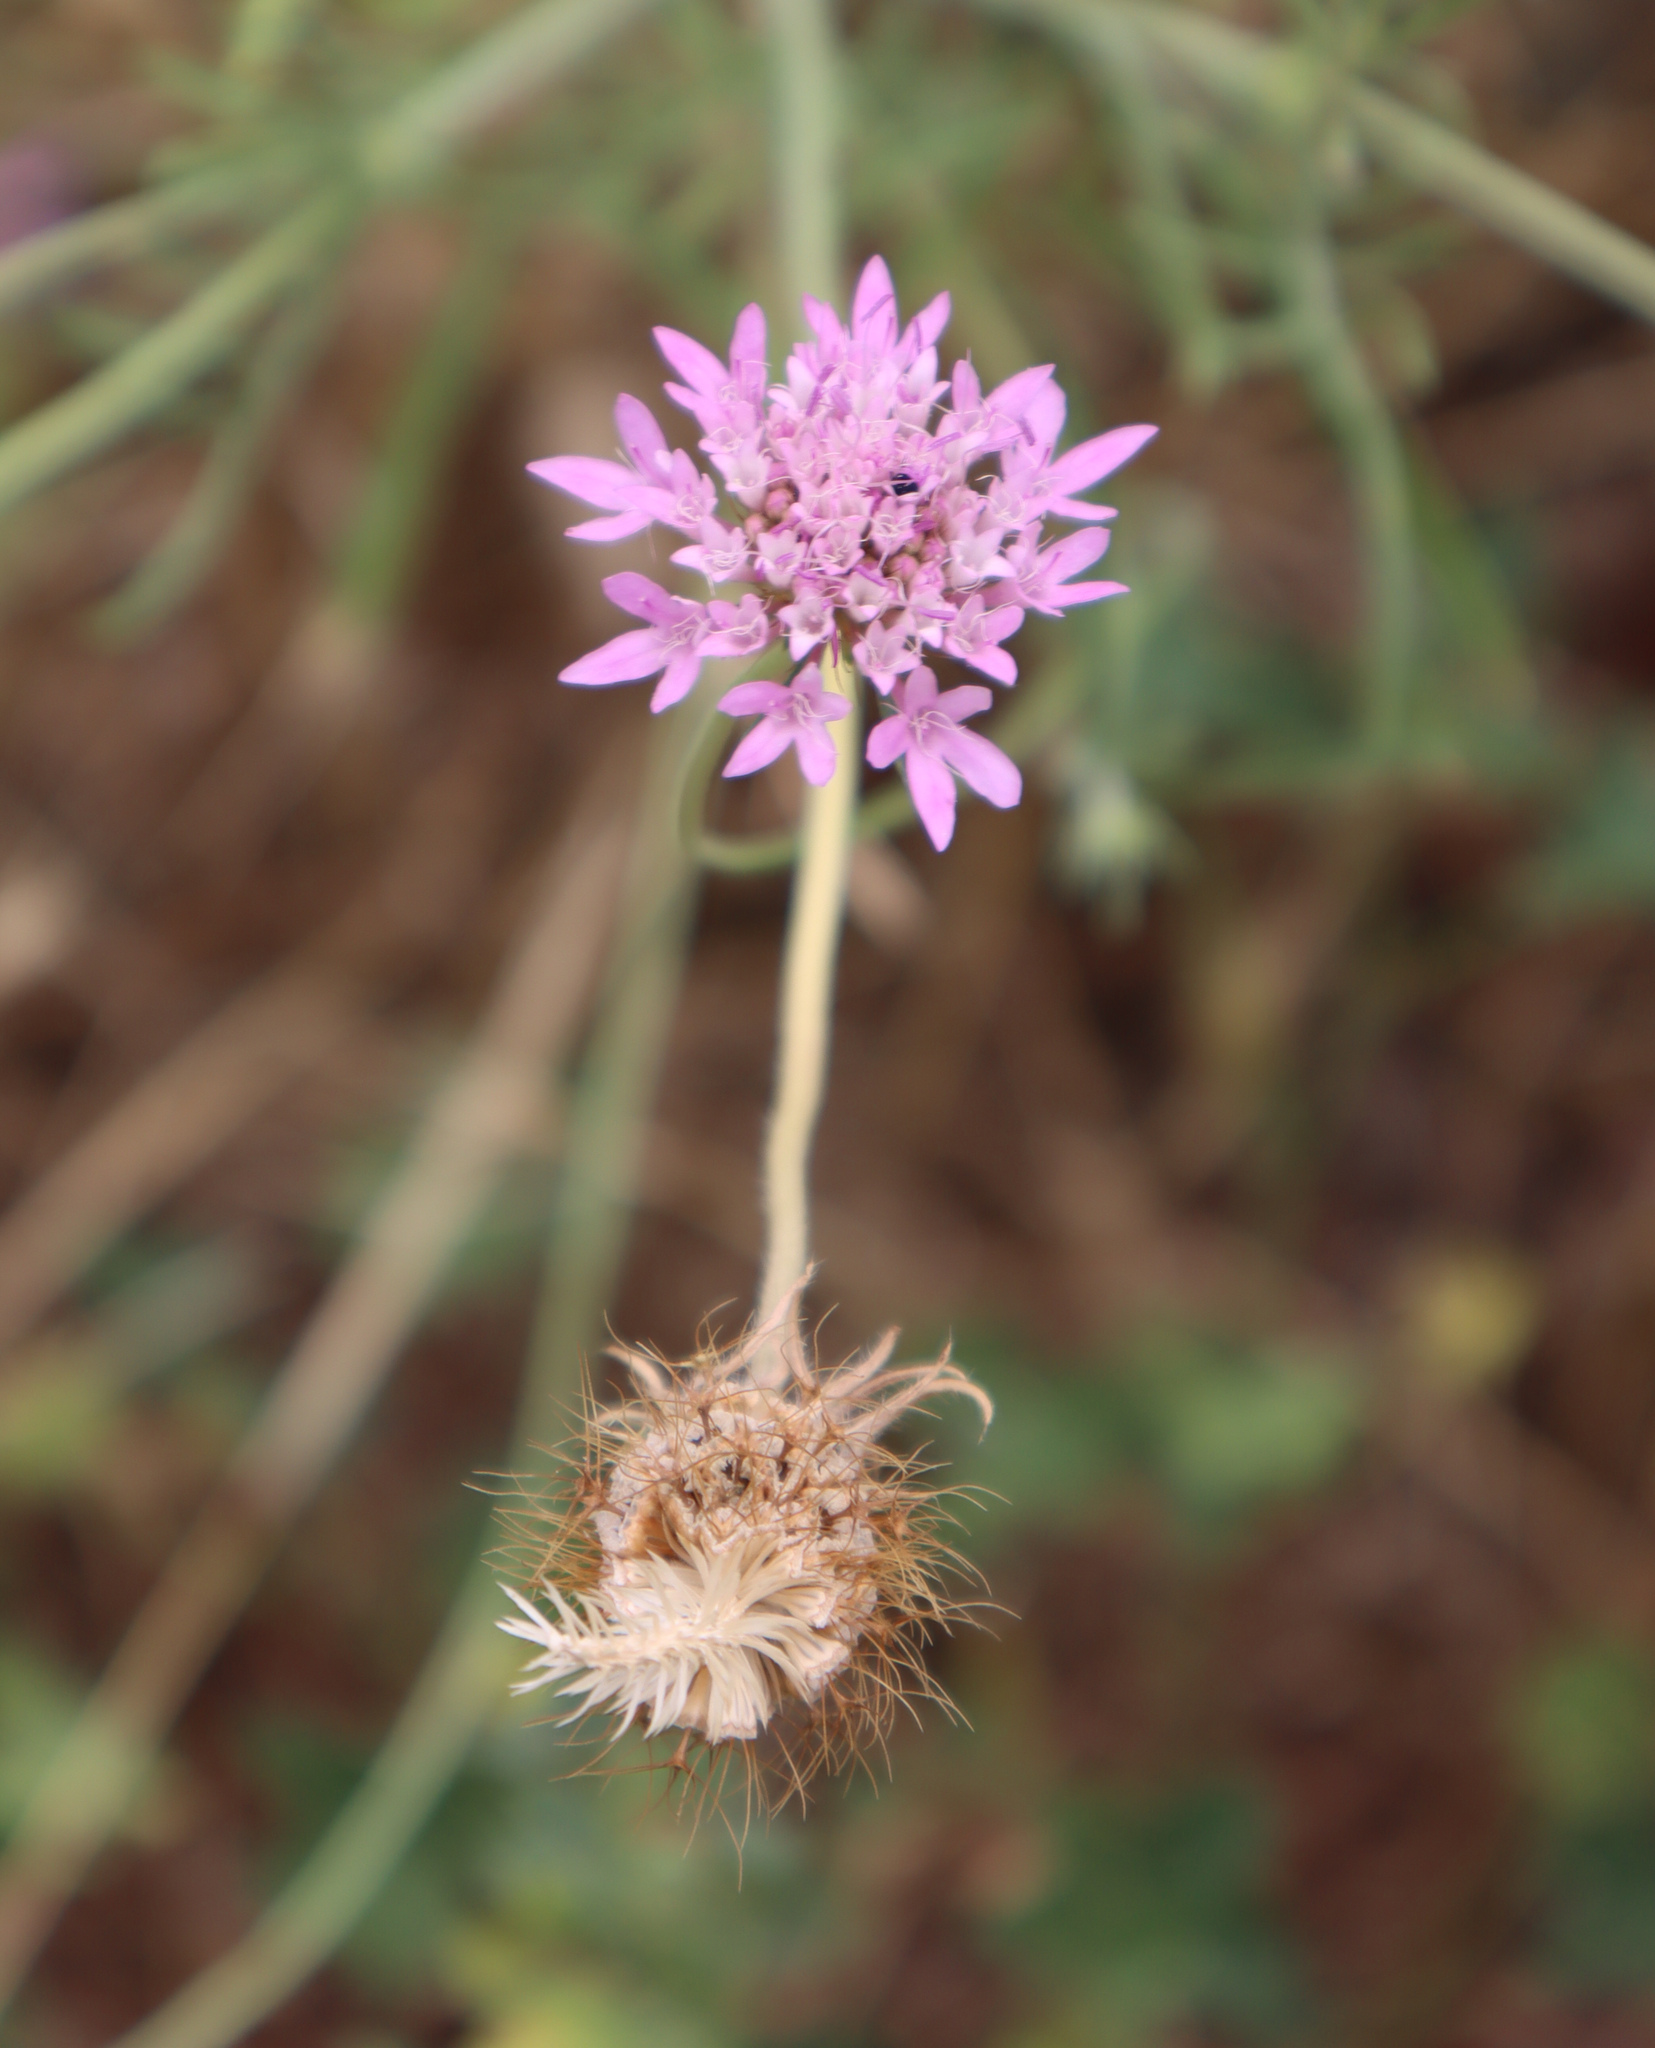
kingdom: Plantae
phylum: Tracheophyta
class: Magnoliopsida
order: Dipsacales
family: Caprifoliaceae
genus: Sixalix
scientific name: Sixalix atropurpurea
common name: Sweet scabious
